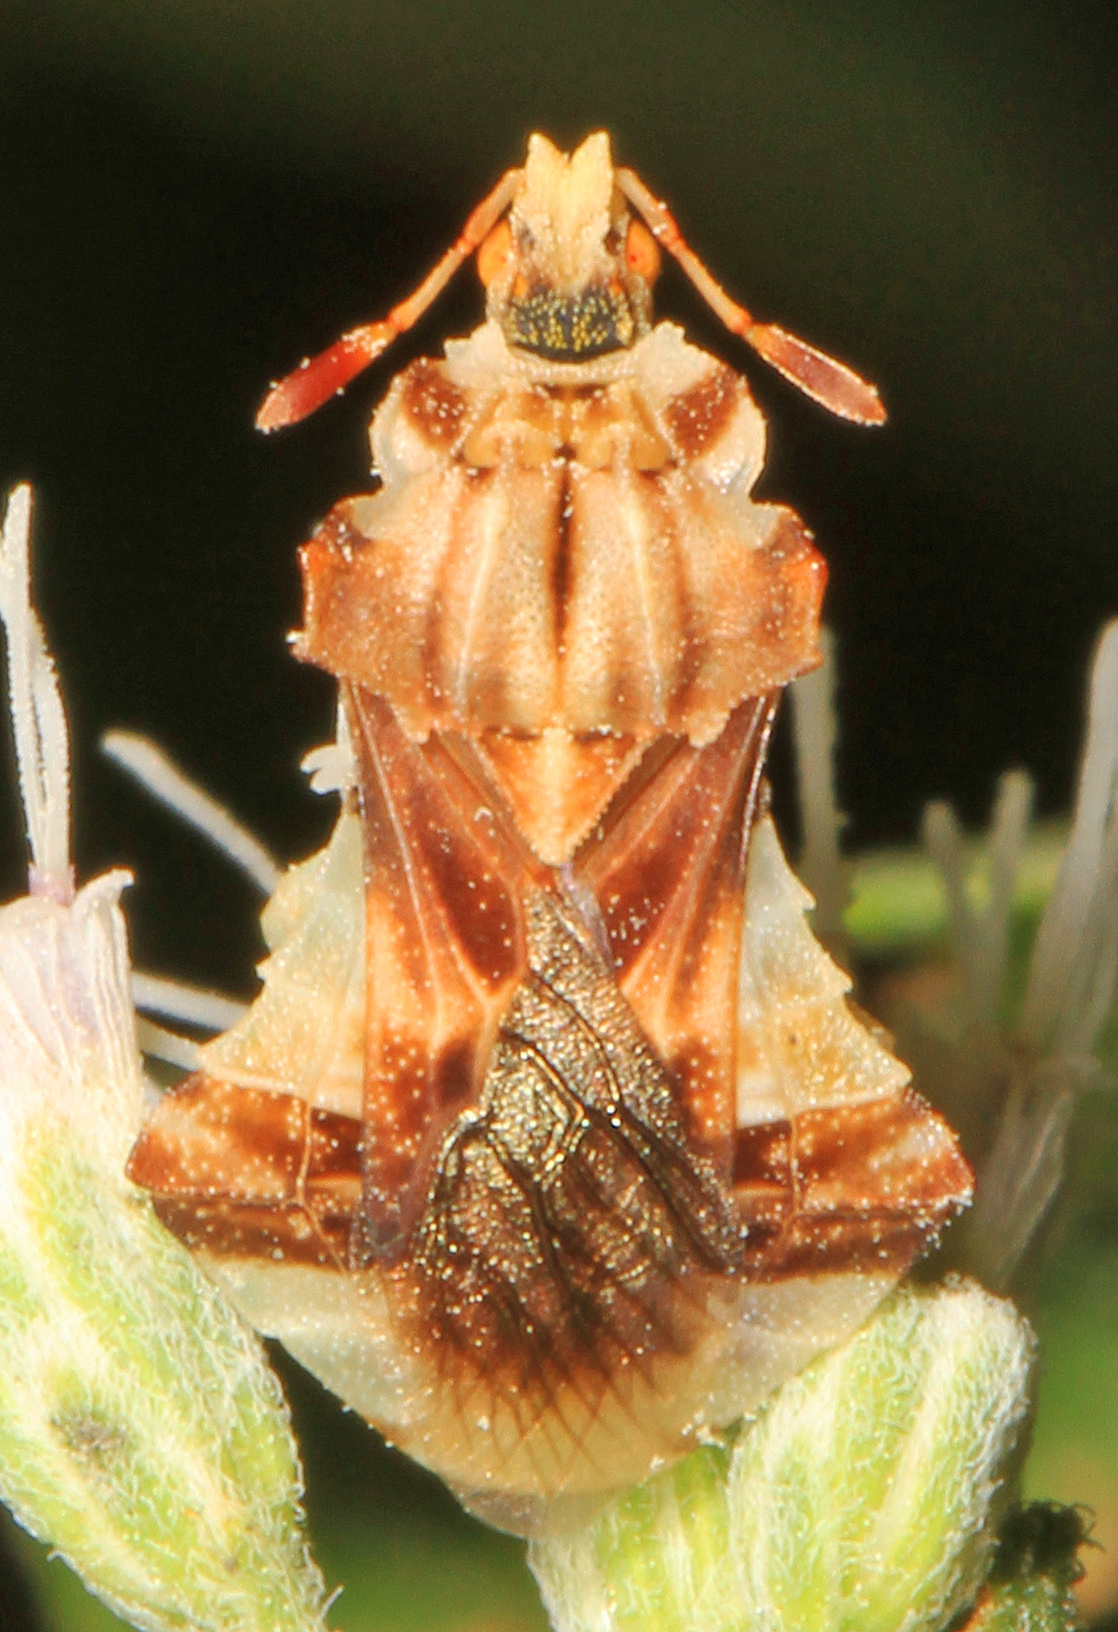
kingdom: Animalia
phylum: Arthropoda
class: Insecta
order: Hemiptera
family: Reduviidae
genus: Phymata
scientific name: Phymata fasciata
